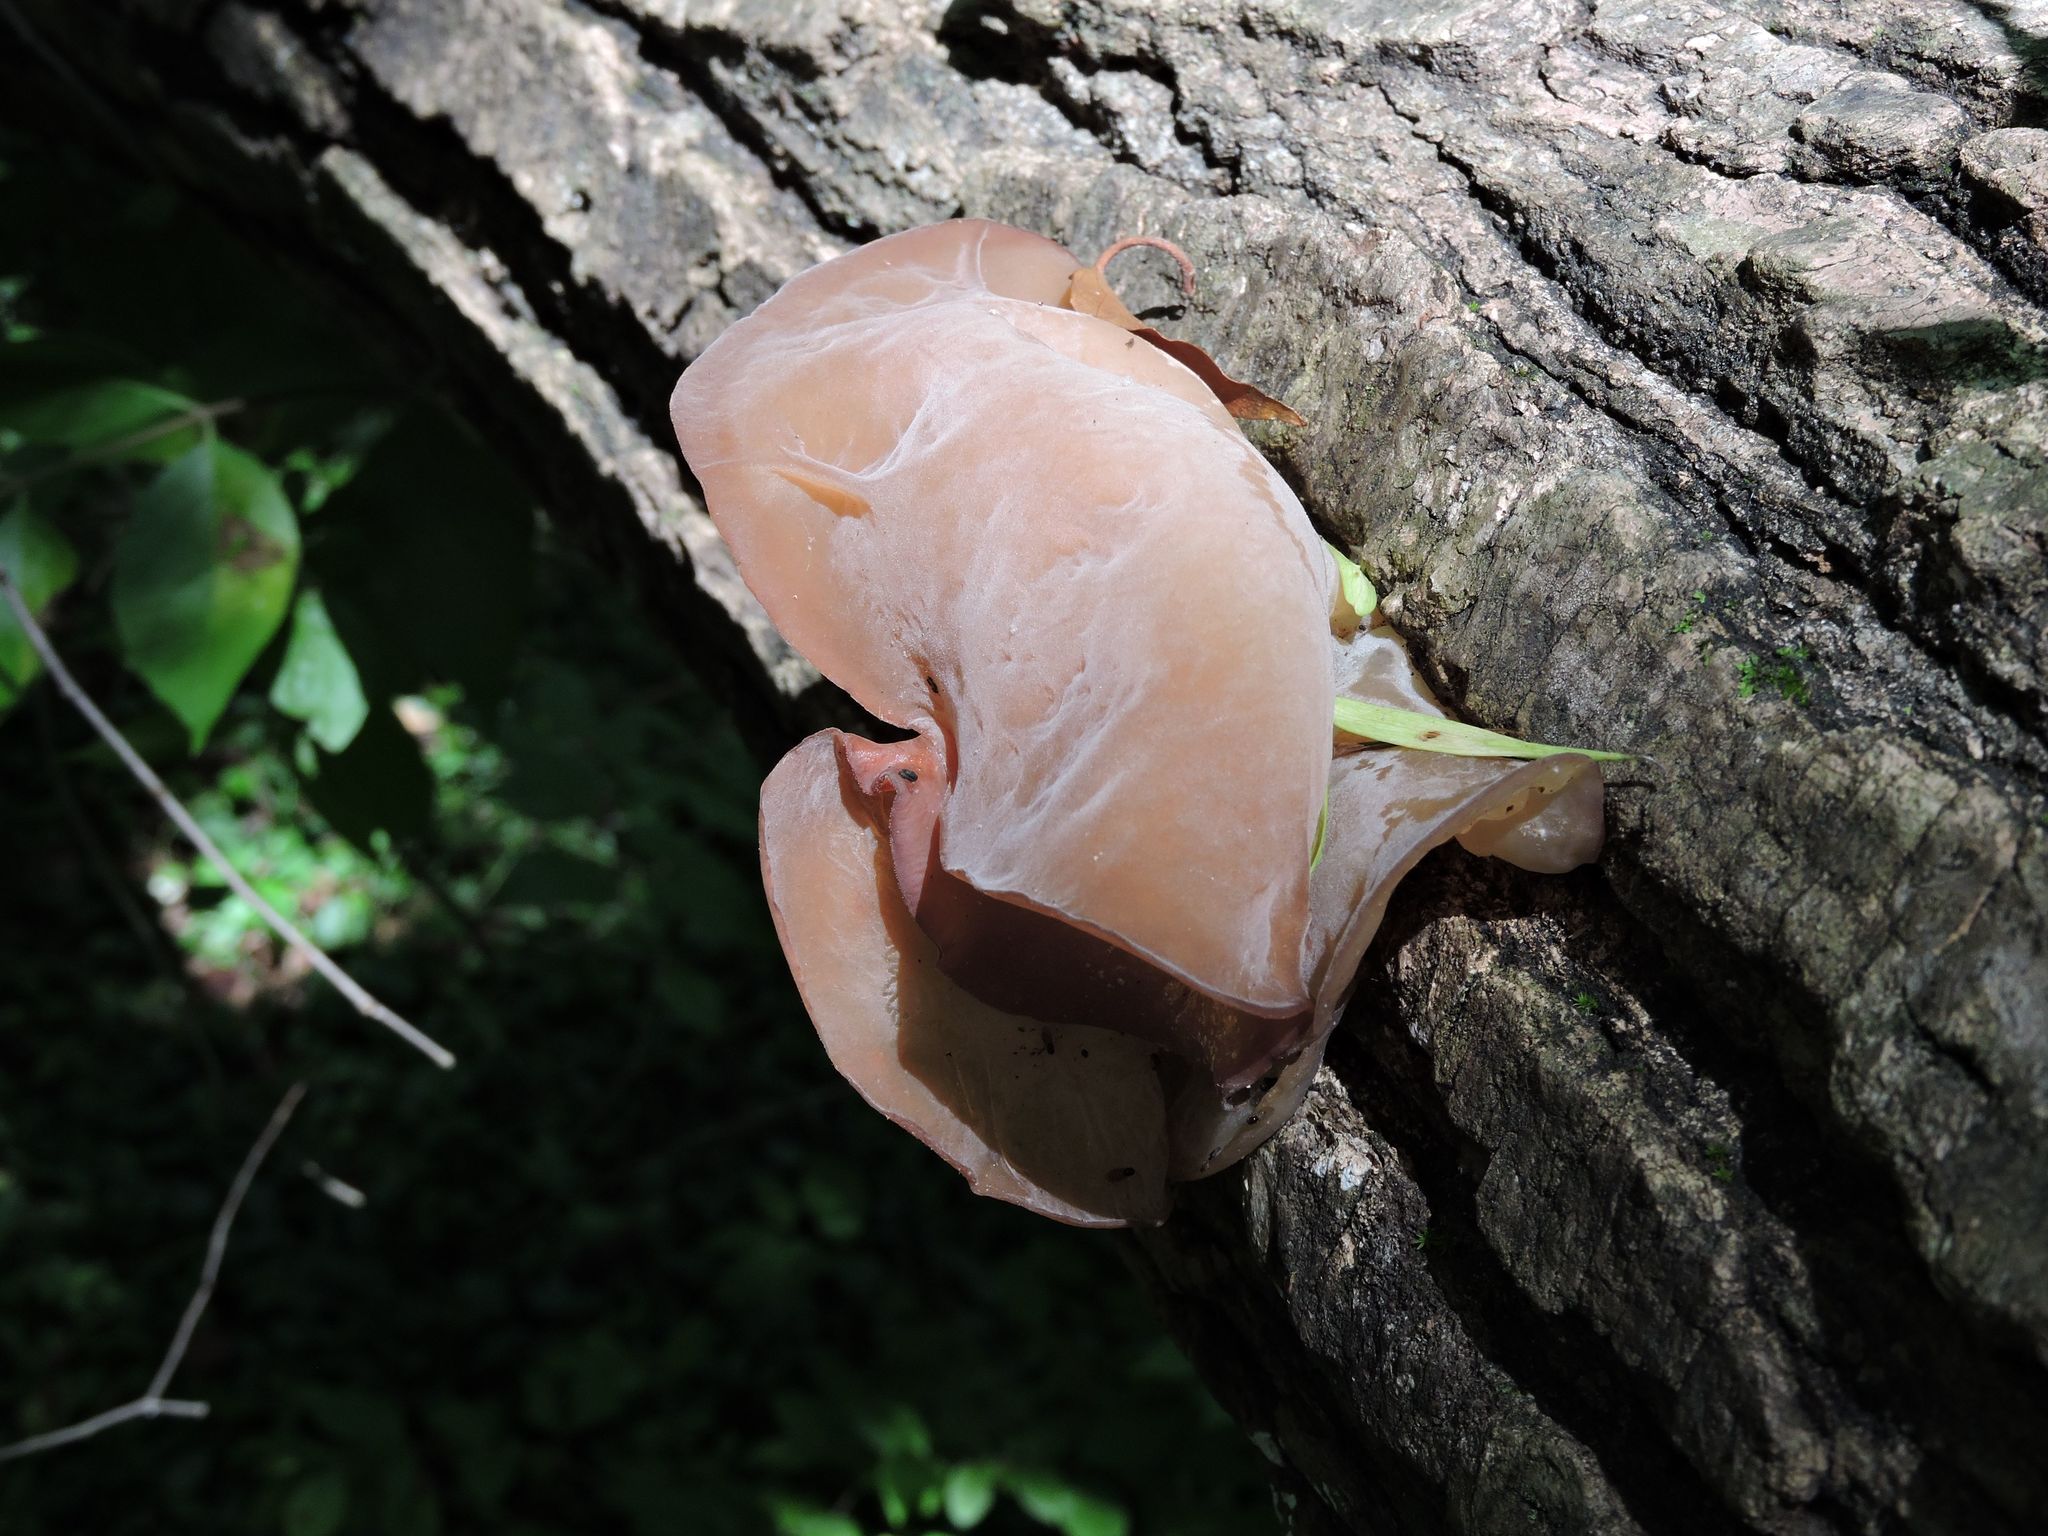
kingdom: Fungi
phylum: Basidiomycota
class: Agaricomycetes
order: Auriculariales
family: Auriculariaceae
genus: Auricularia
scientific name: Auricularia americana
